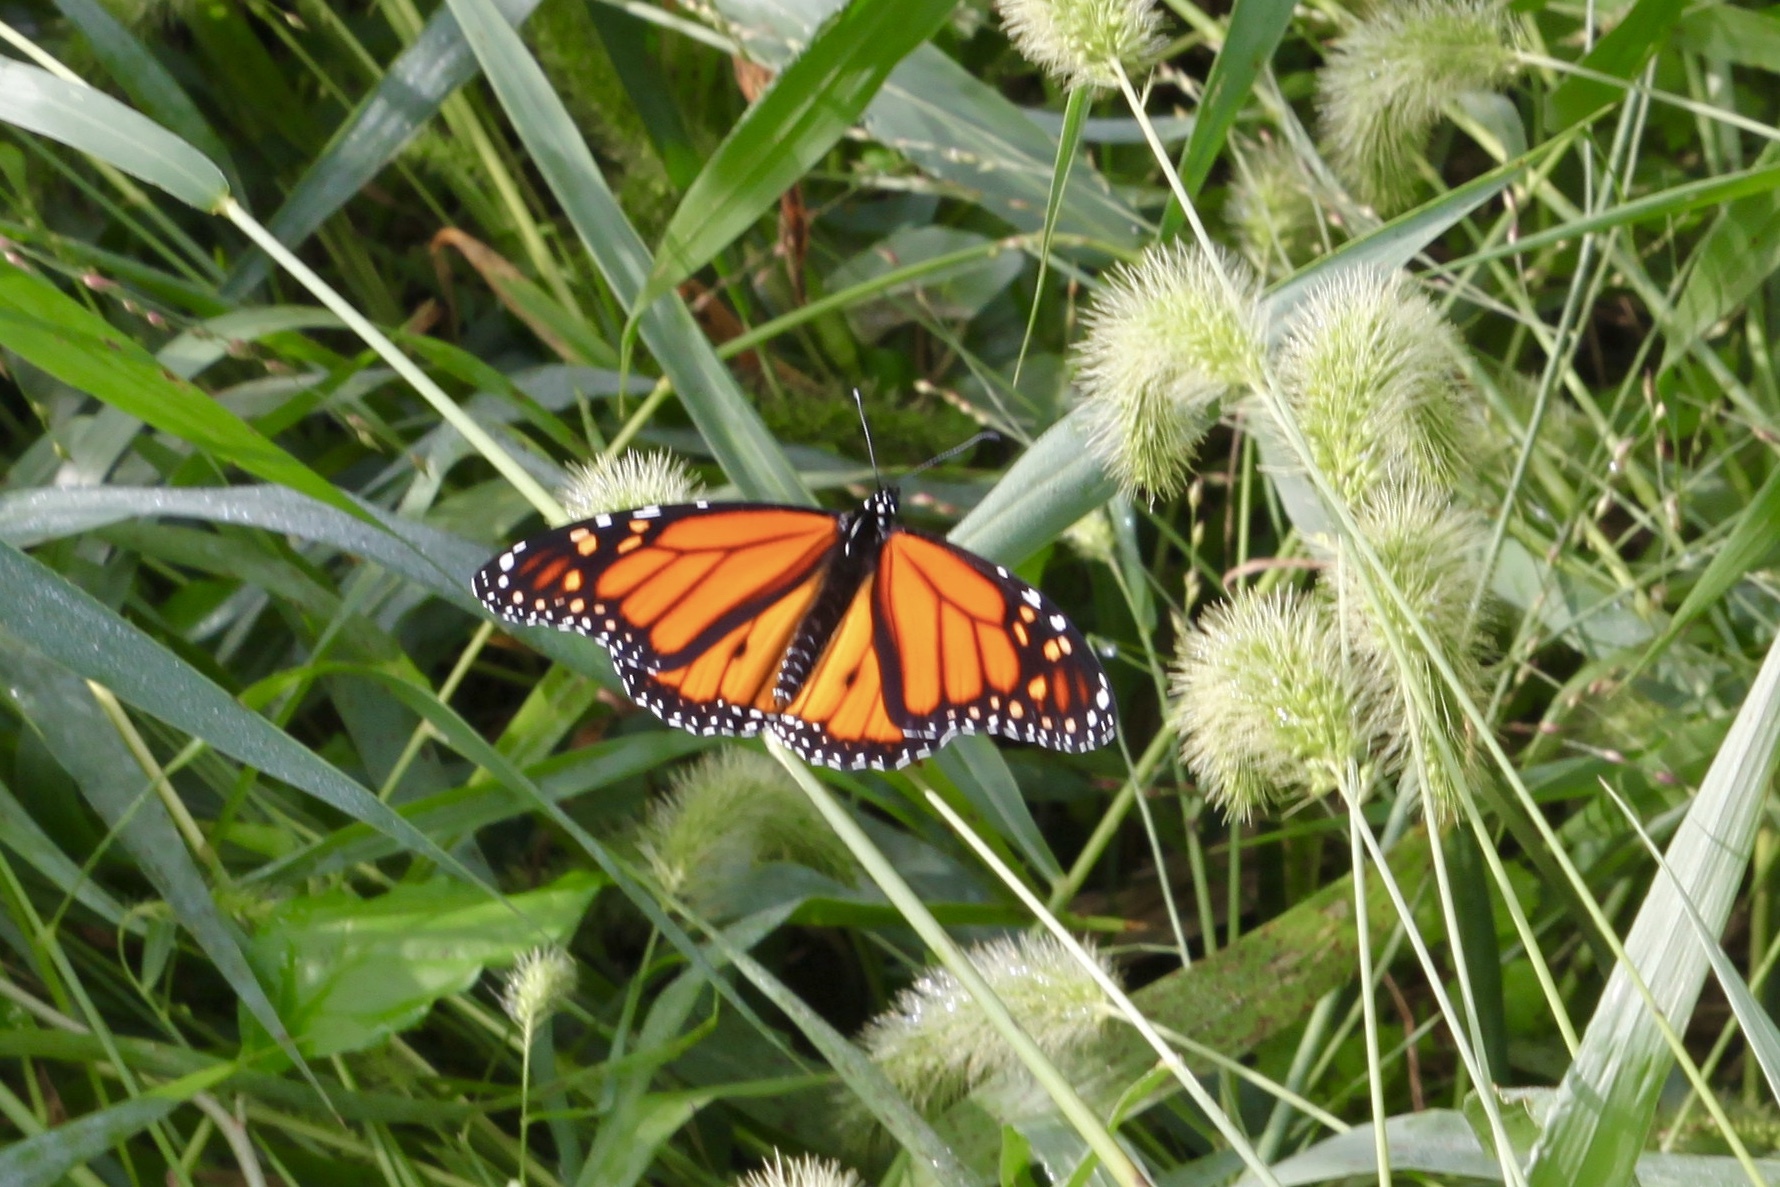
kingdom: Animalia
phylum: Arthropoda
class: Insecta
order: Lepidoptera
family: Nymphalidae
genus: Danaus
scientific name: Danaus plexippus
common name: Monarch
